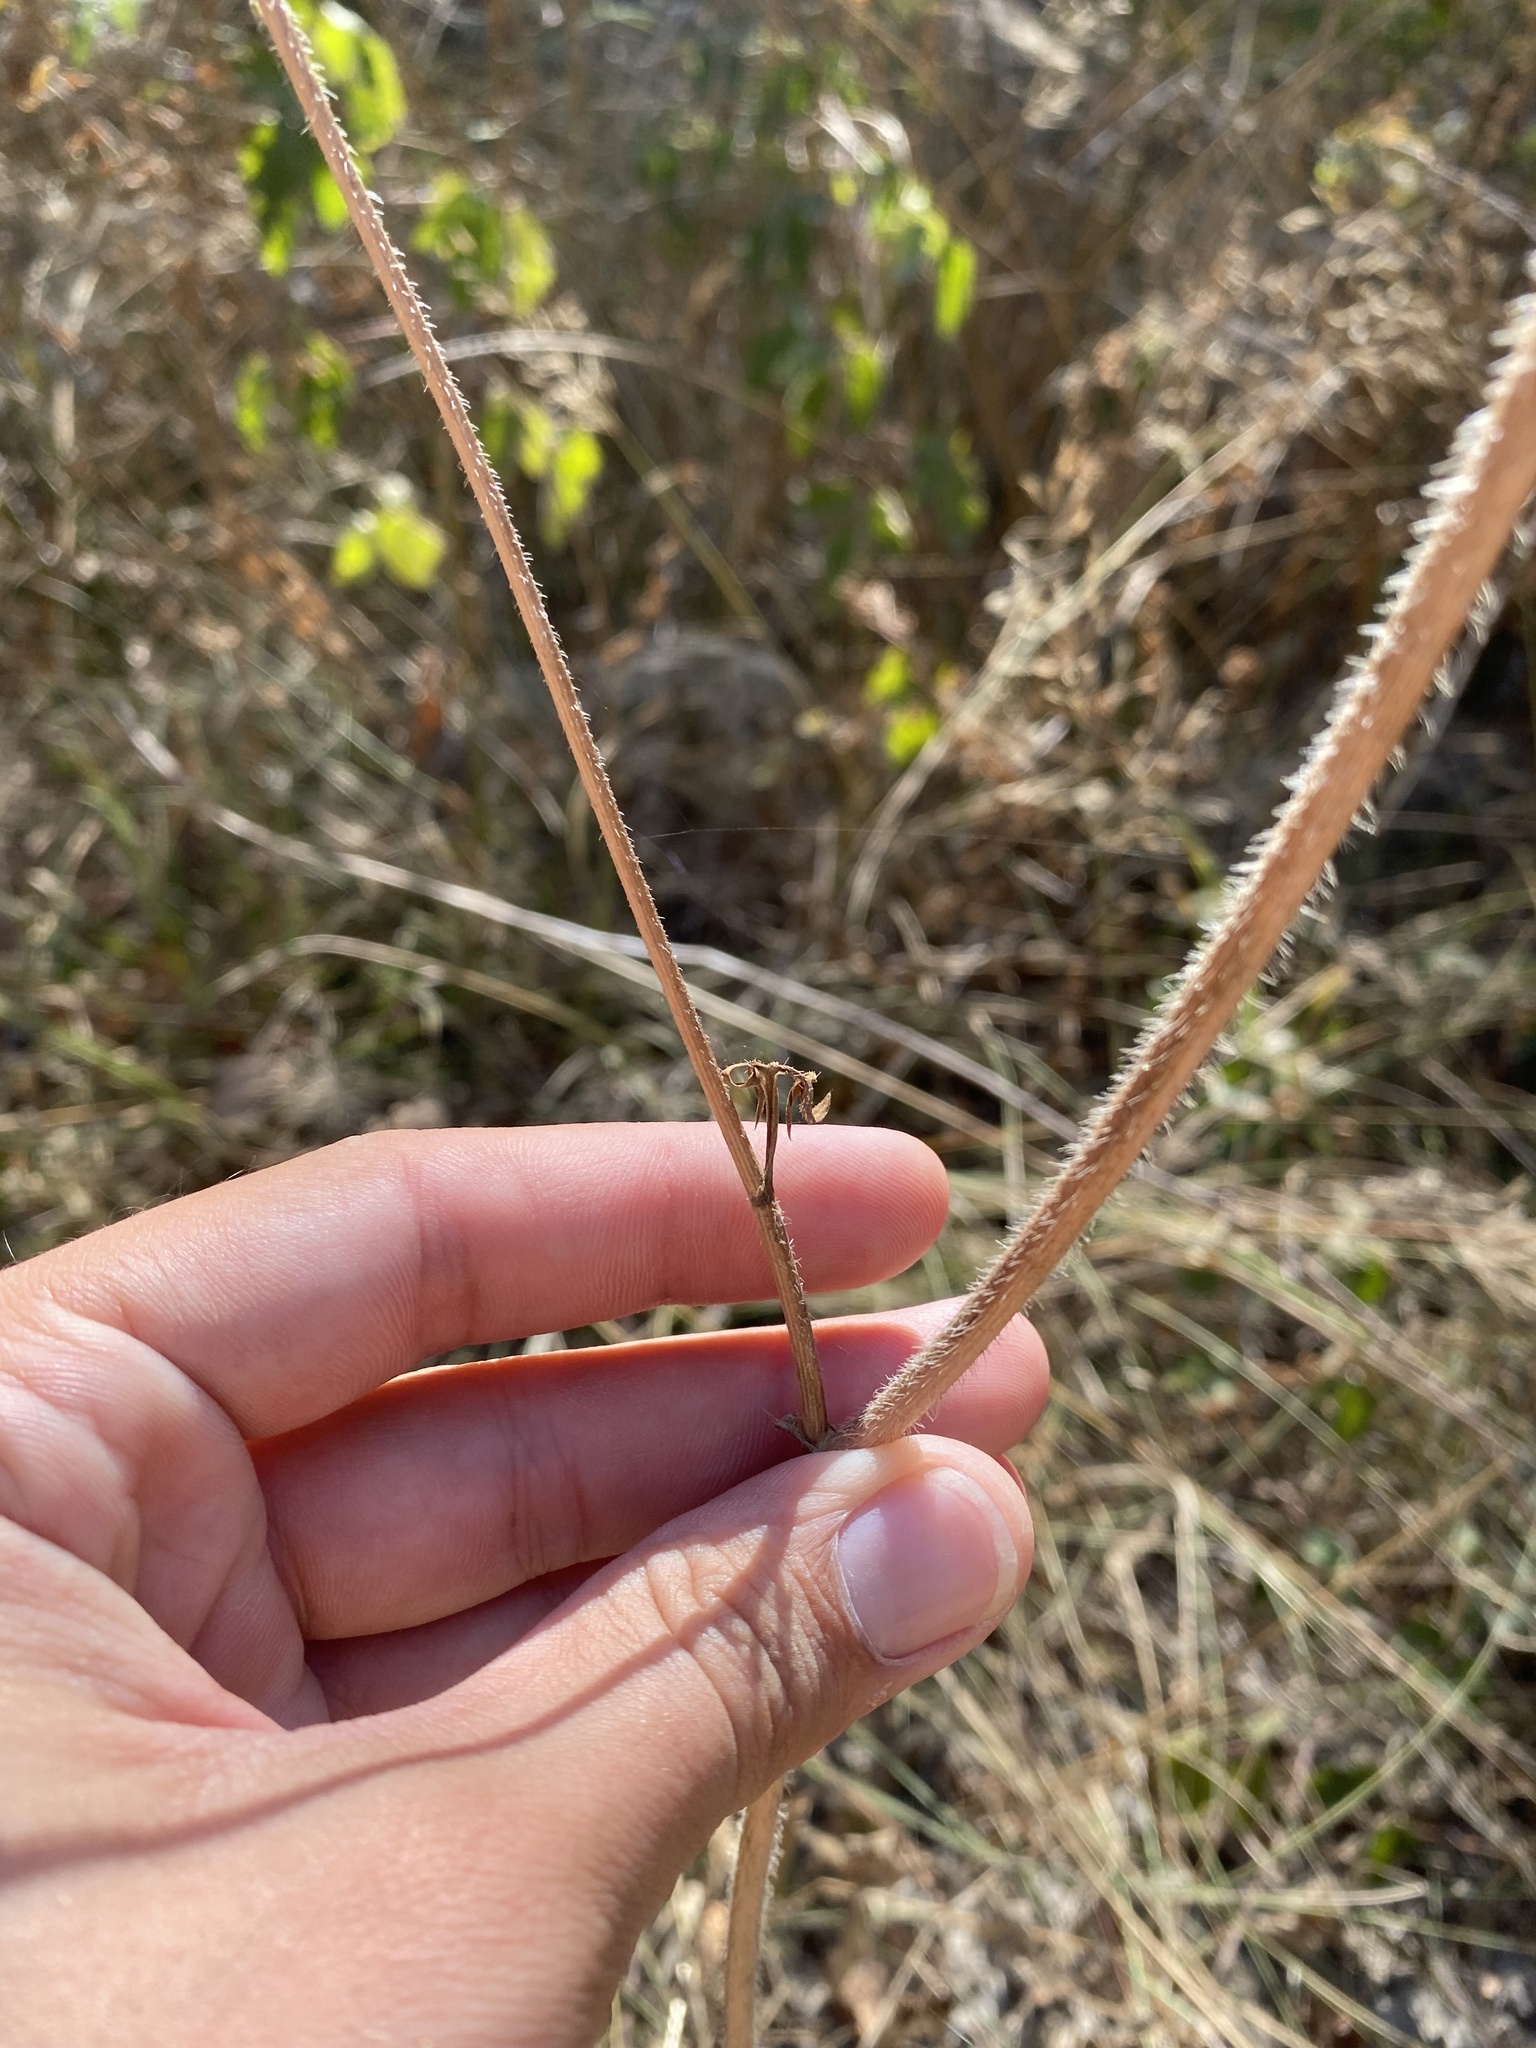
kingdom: Plantae
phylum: Tracheophyta
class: Magnoliopsida
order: Apiales
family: Apiaceae
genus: Daucus
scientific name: Daucus carota
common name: Wild carrot
